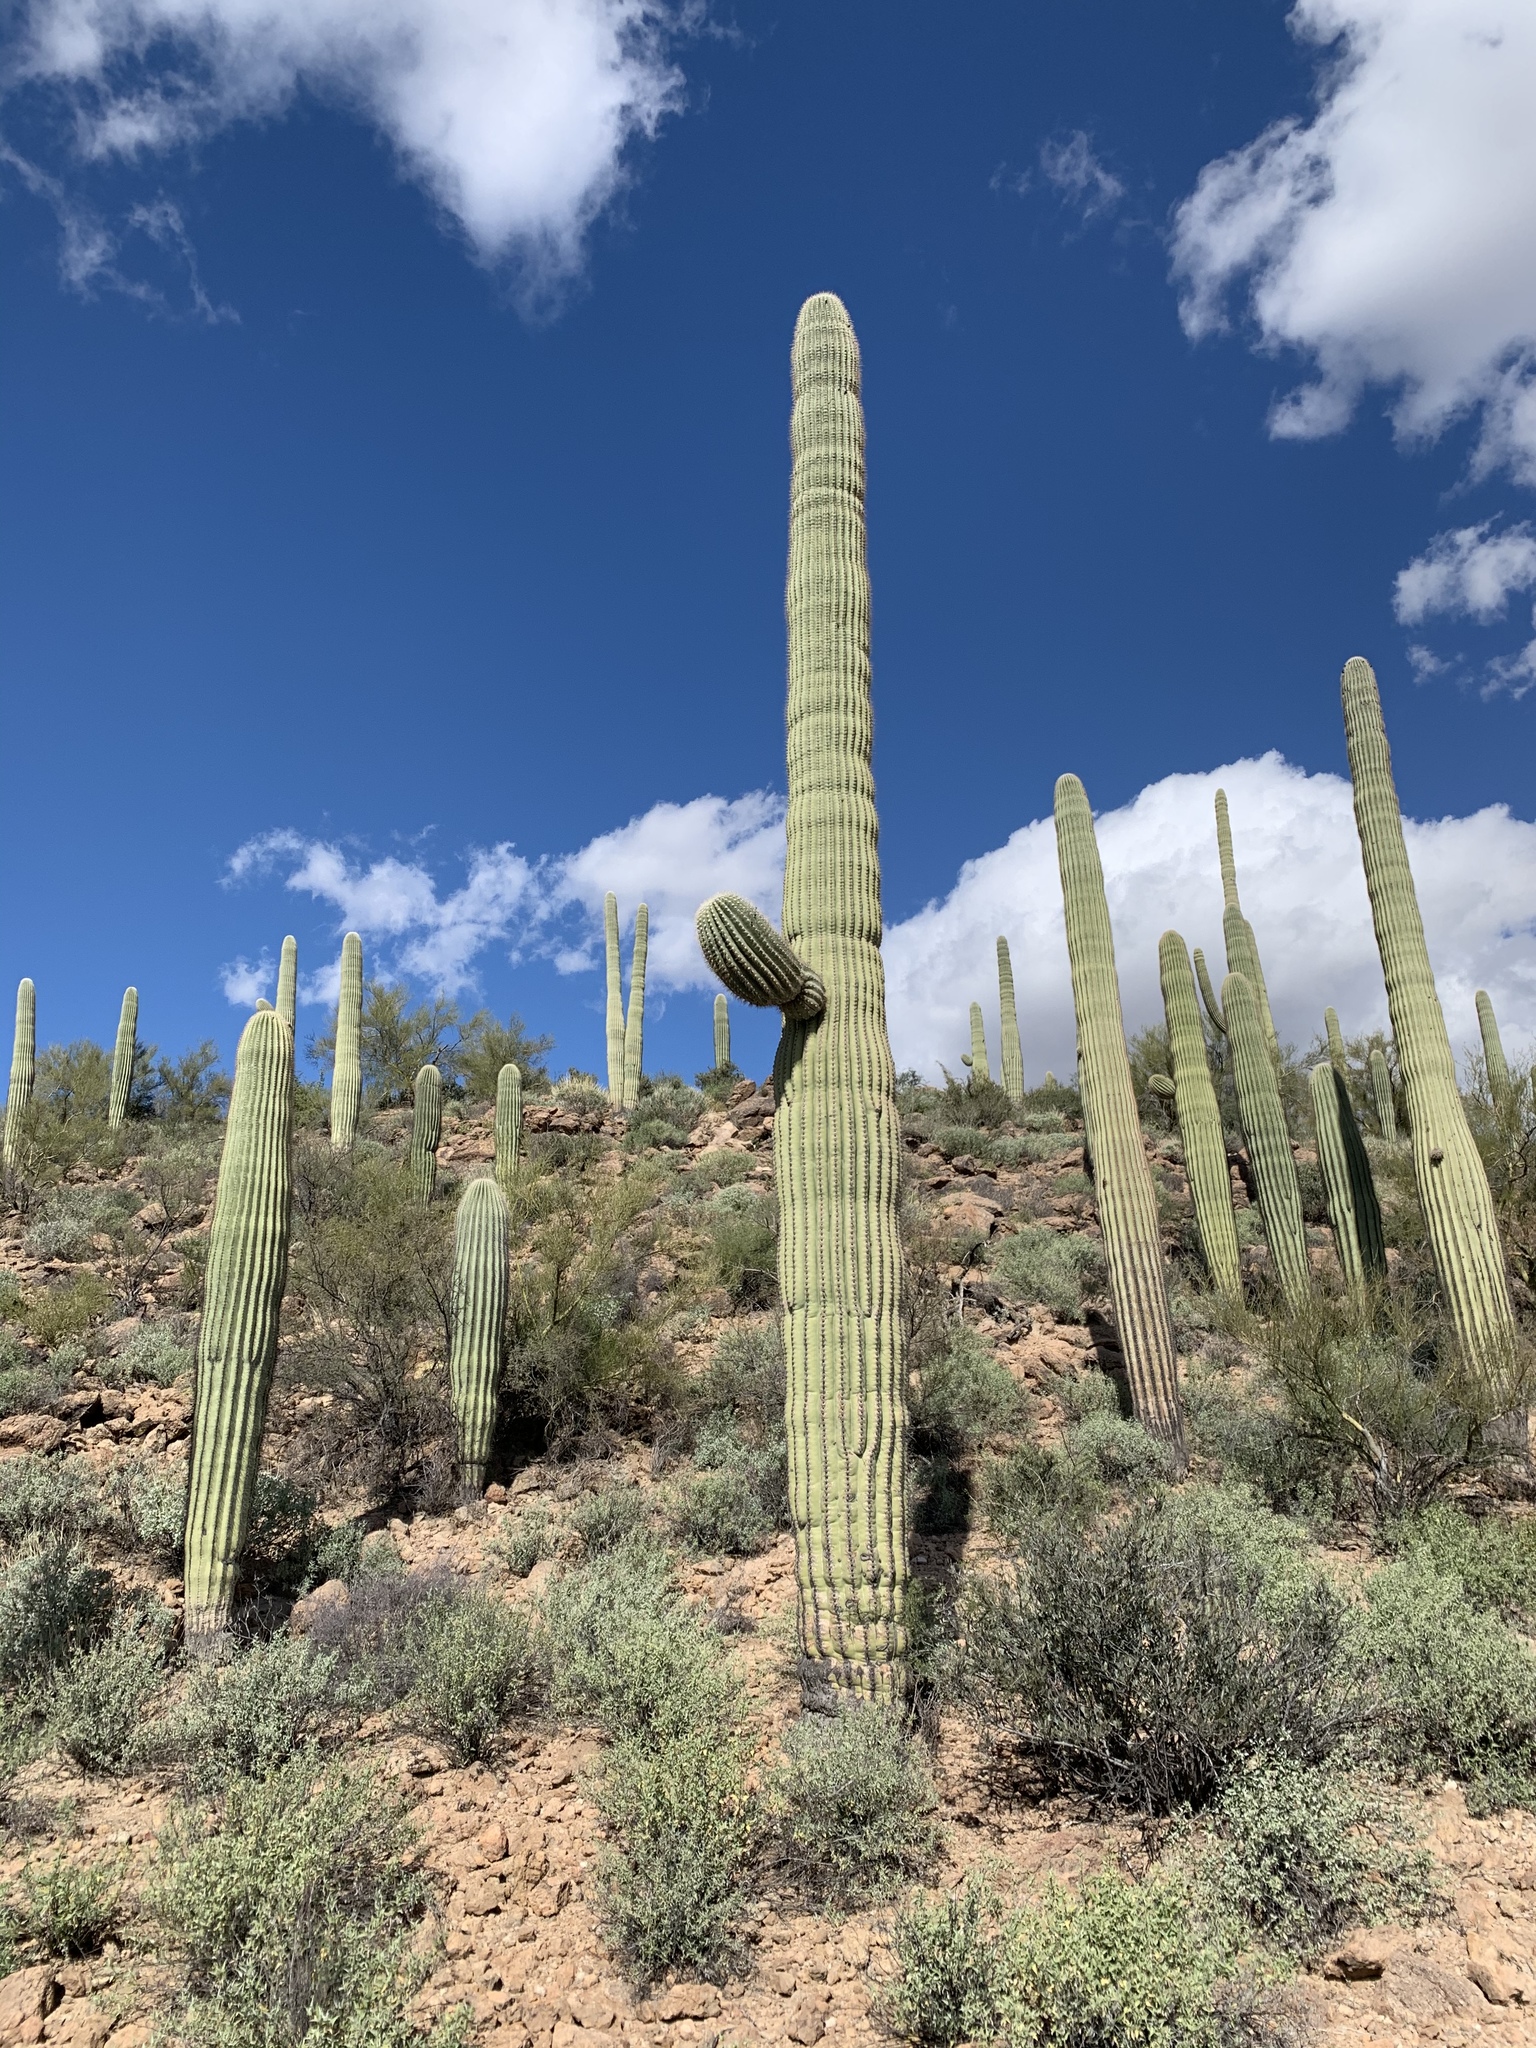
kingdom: Plantae
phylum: Tracheophyta
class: Magnoliopsida
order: Caryophyllales
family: Cactaceae
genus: Carnegiea
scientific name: Carnegiea gigantea
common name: Saguaro
